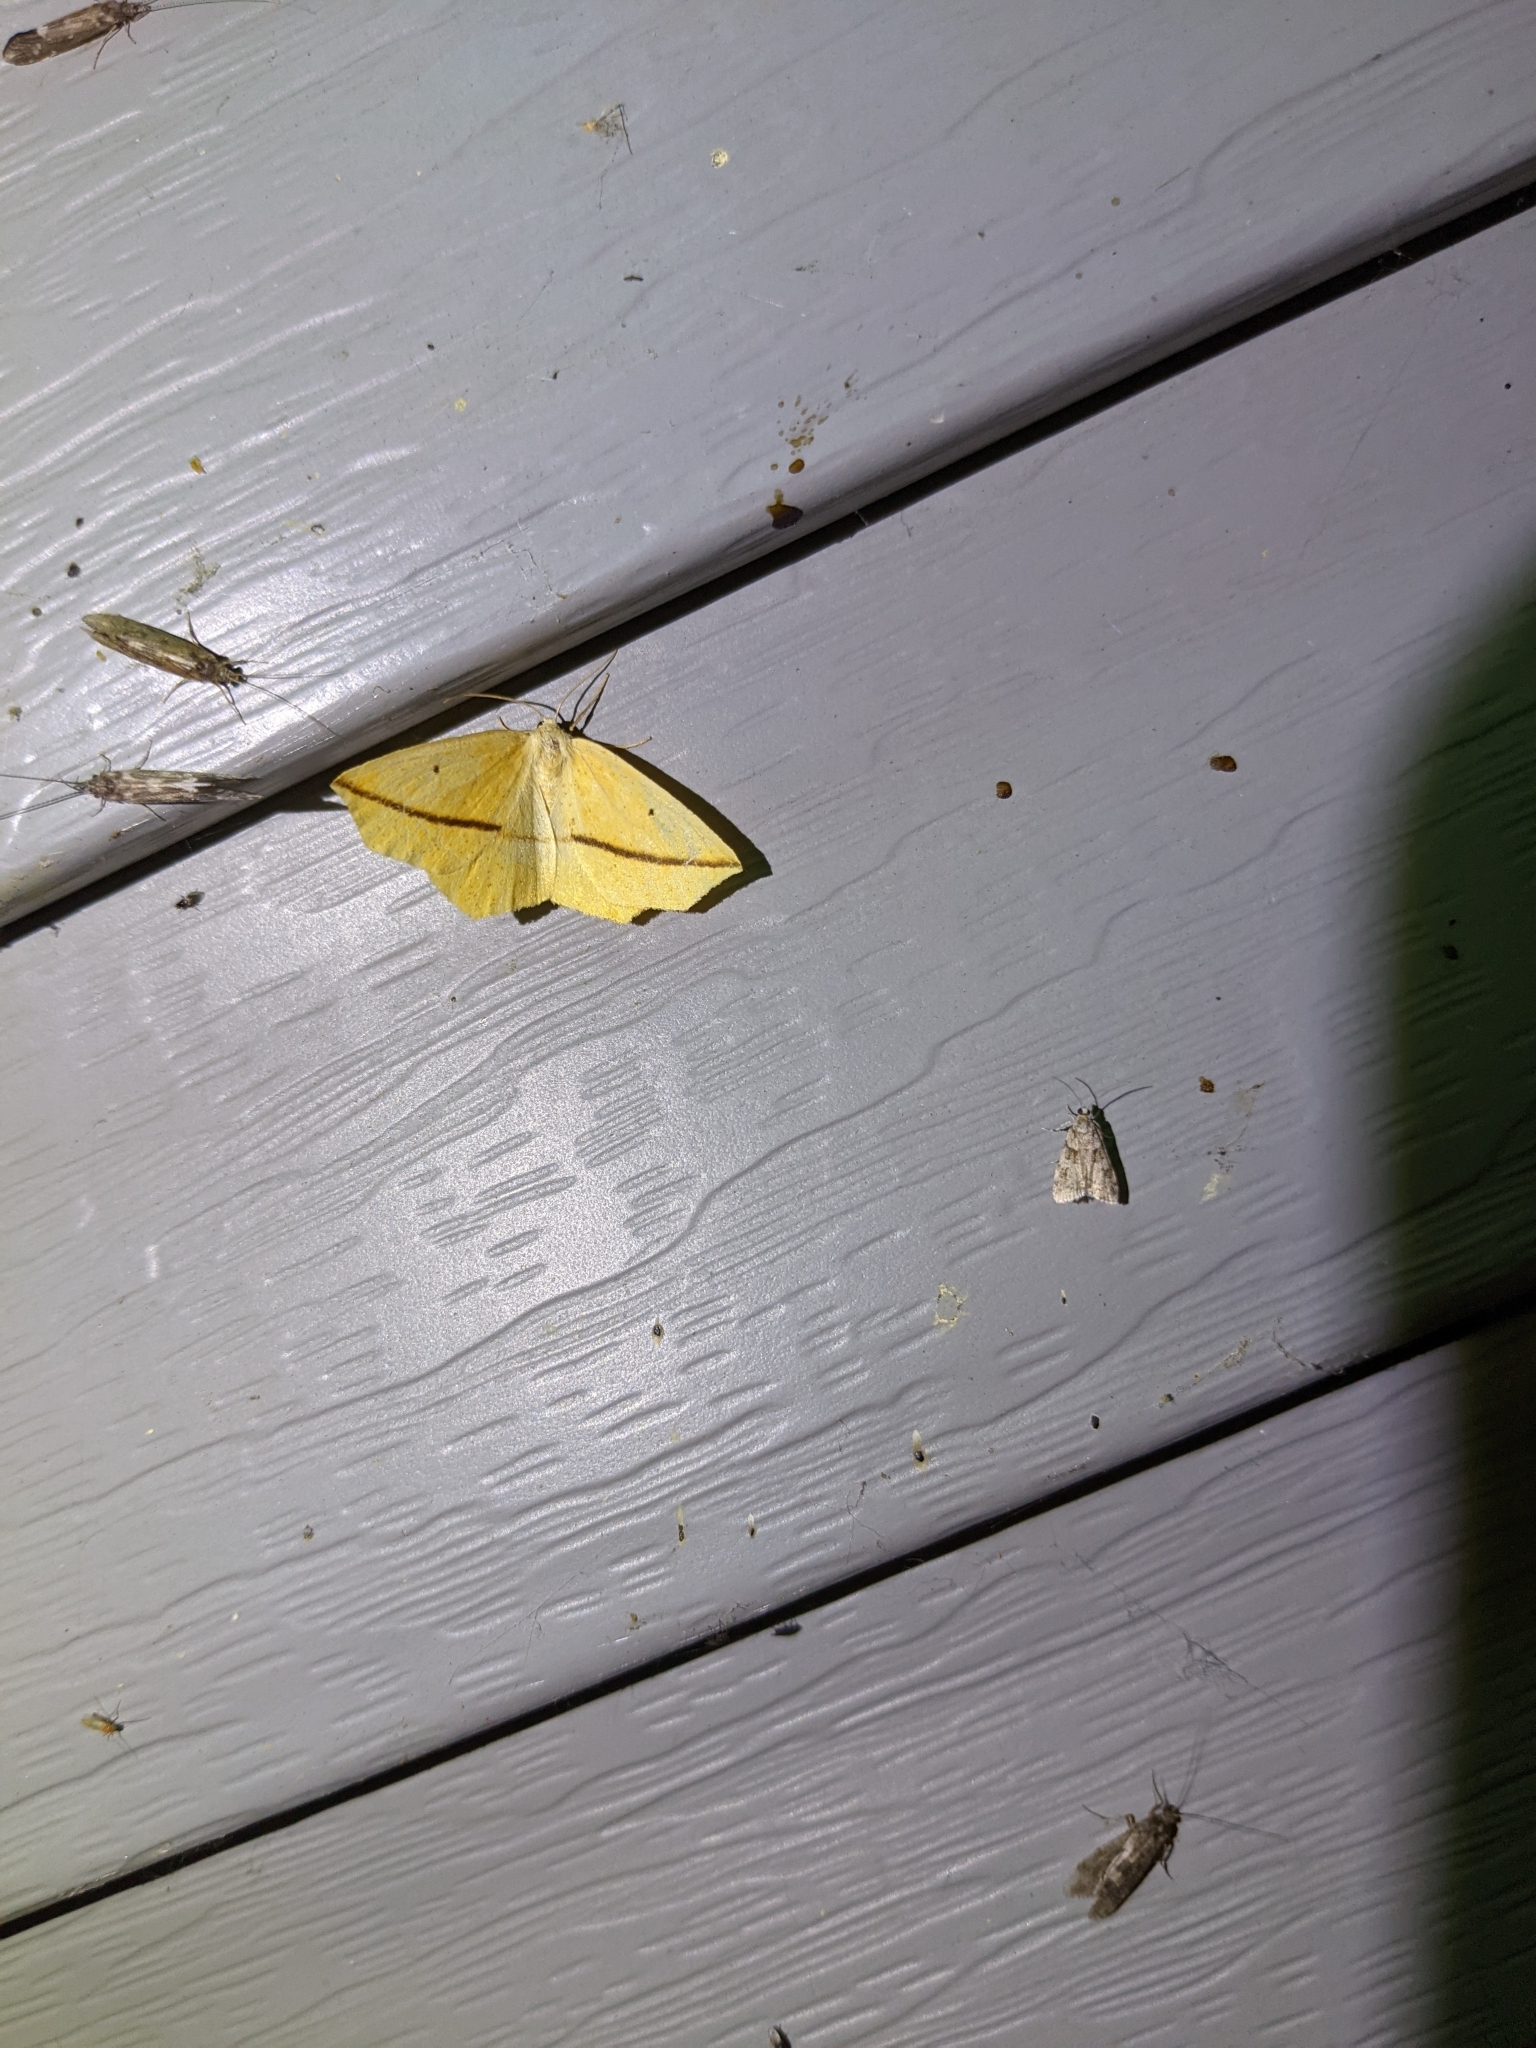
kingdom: Animalia
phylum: Arthropoda
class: Insecta
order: Lepidoptera
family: Geometridae
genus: Tetracis
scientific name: Tetracis crocallata
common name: Yellow slant-line
